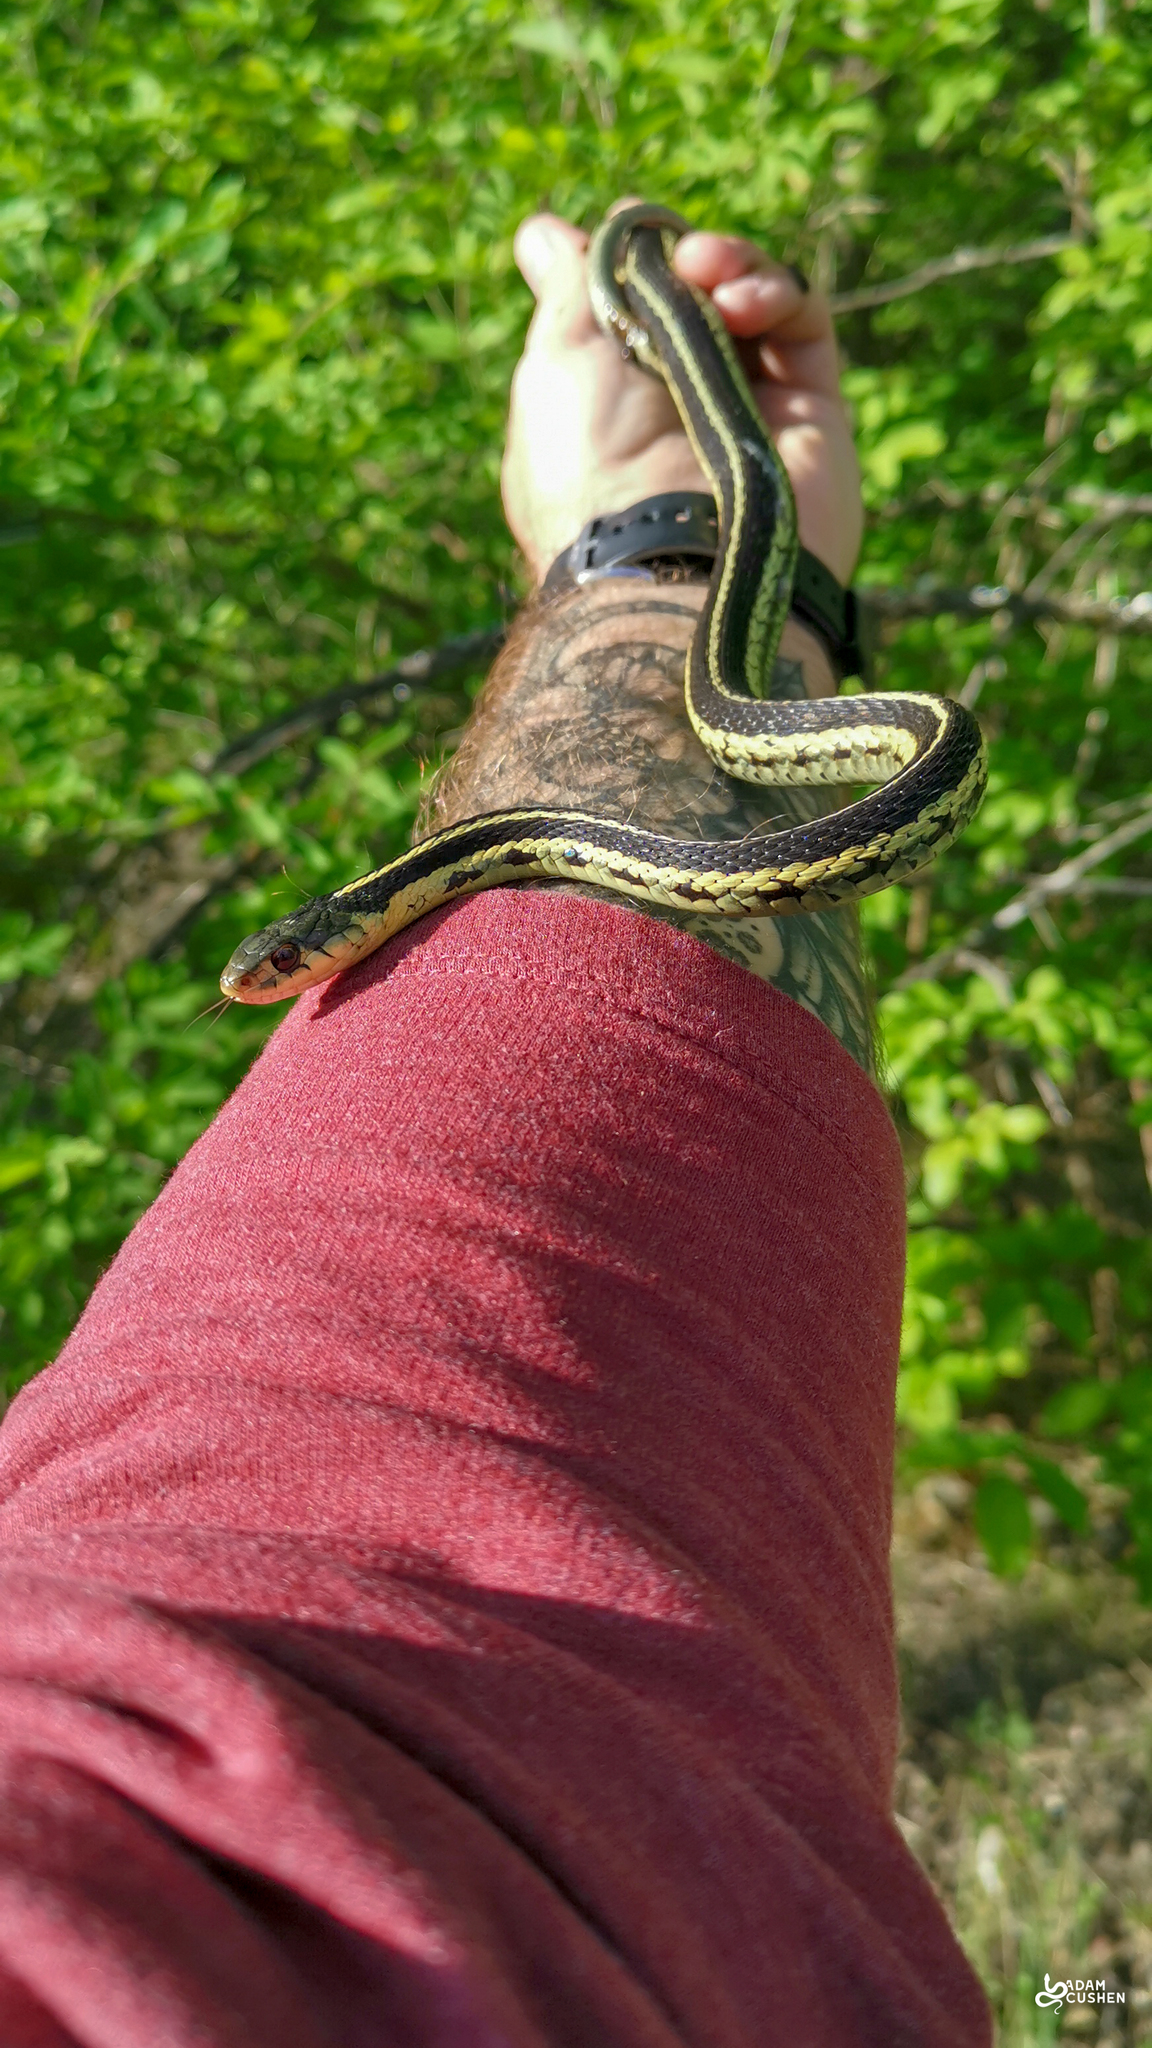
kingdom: Animalia
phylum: Chordata
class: Squamata
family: Colubridae
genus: Thamnophis
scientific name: Thamnophis sirtalis
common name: Common garter snake
